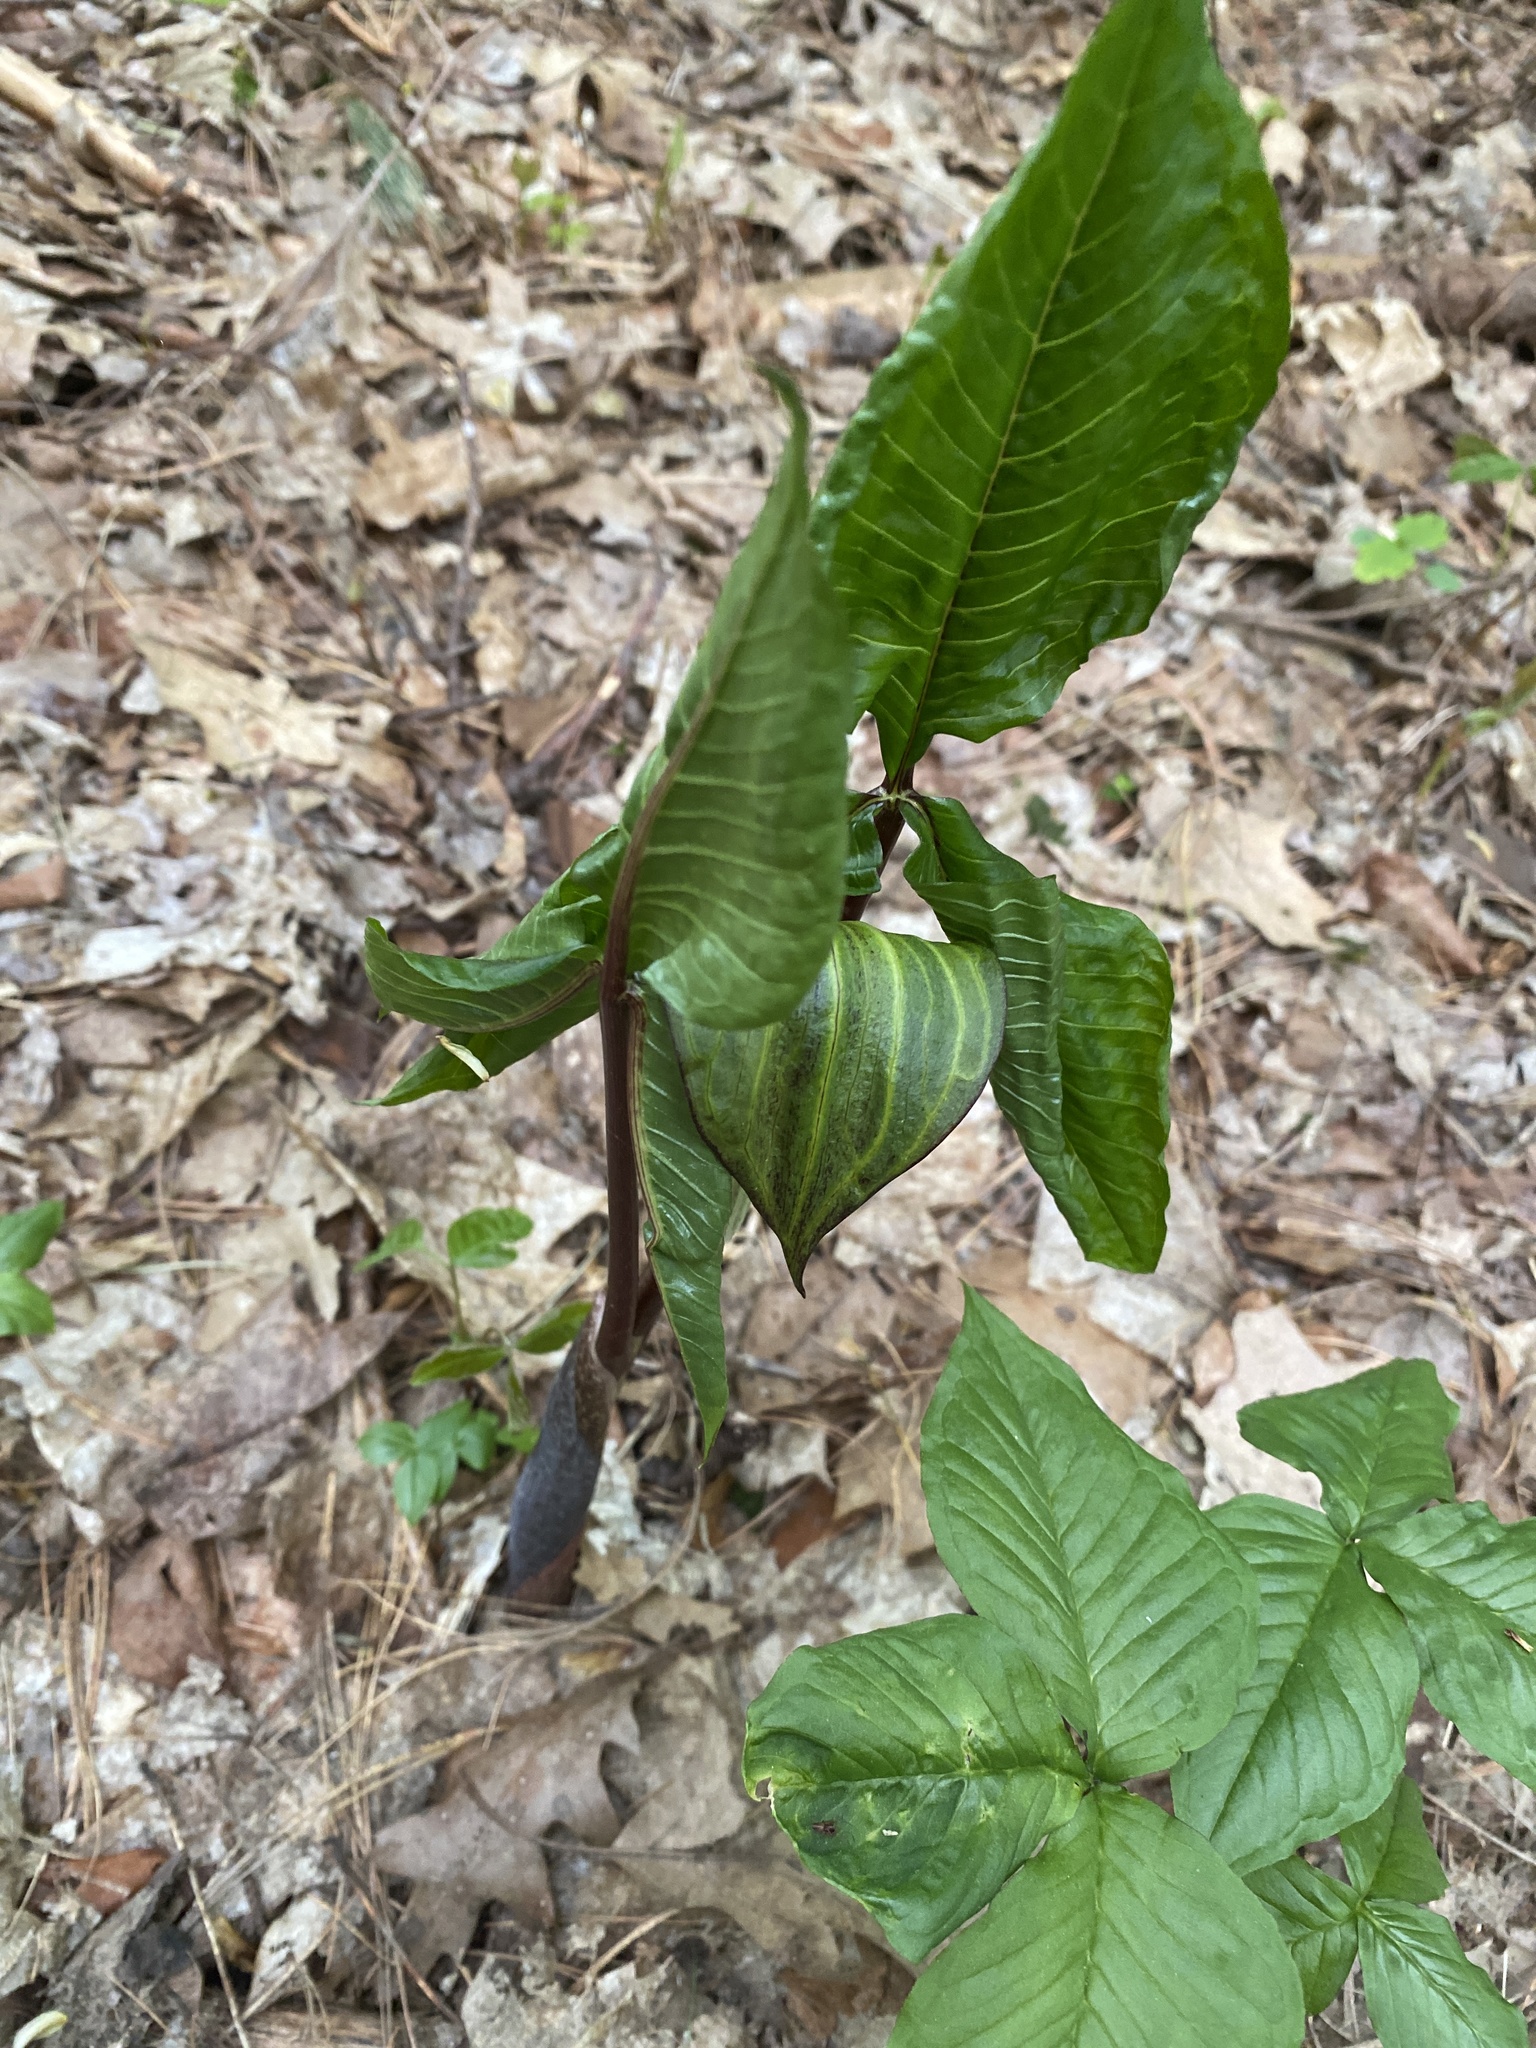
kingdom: Plantae
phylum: Tracheophyta
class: Liliopsida
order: Alismatales
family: Araceae
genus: Arisaema
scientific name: Arisaema triphyllum
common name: Jack-in-the-pulpit
